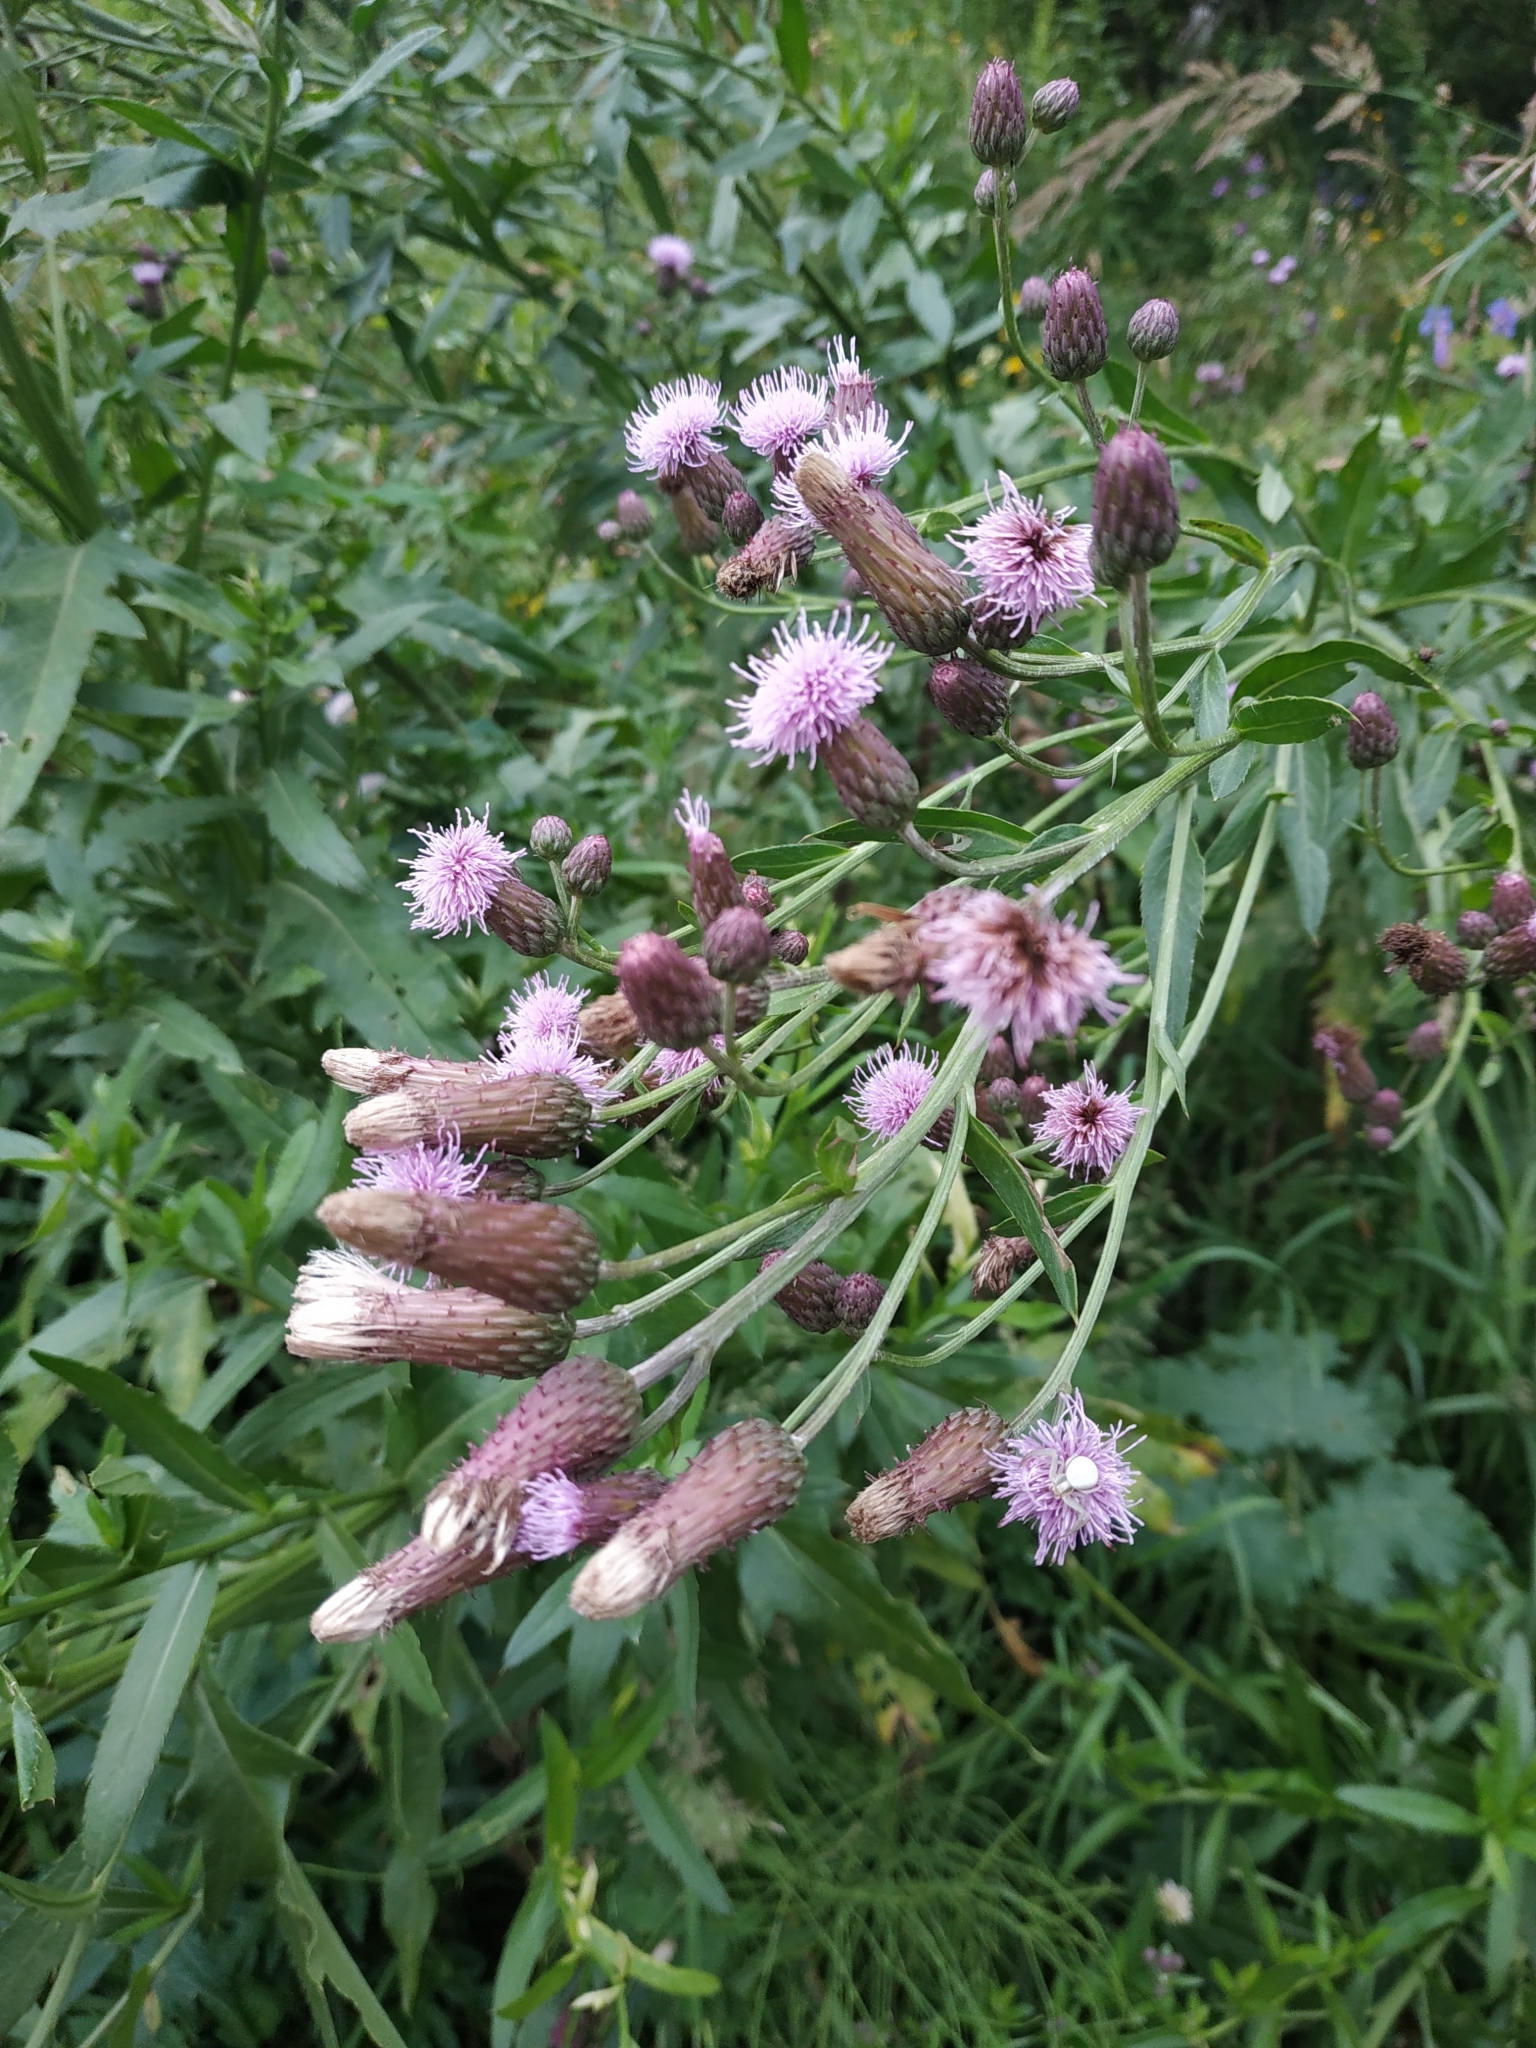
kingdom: Plantae
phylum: Tracheophyta
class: Magnoliopsida
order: Asterales
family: Asteraceae
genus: Cirsium
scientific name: Cirsium arvense
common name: Creeping thistle
